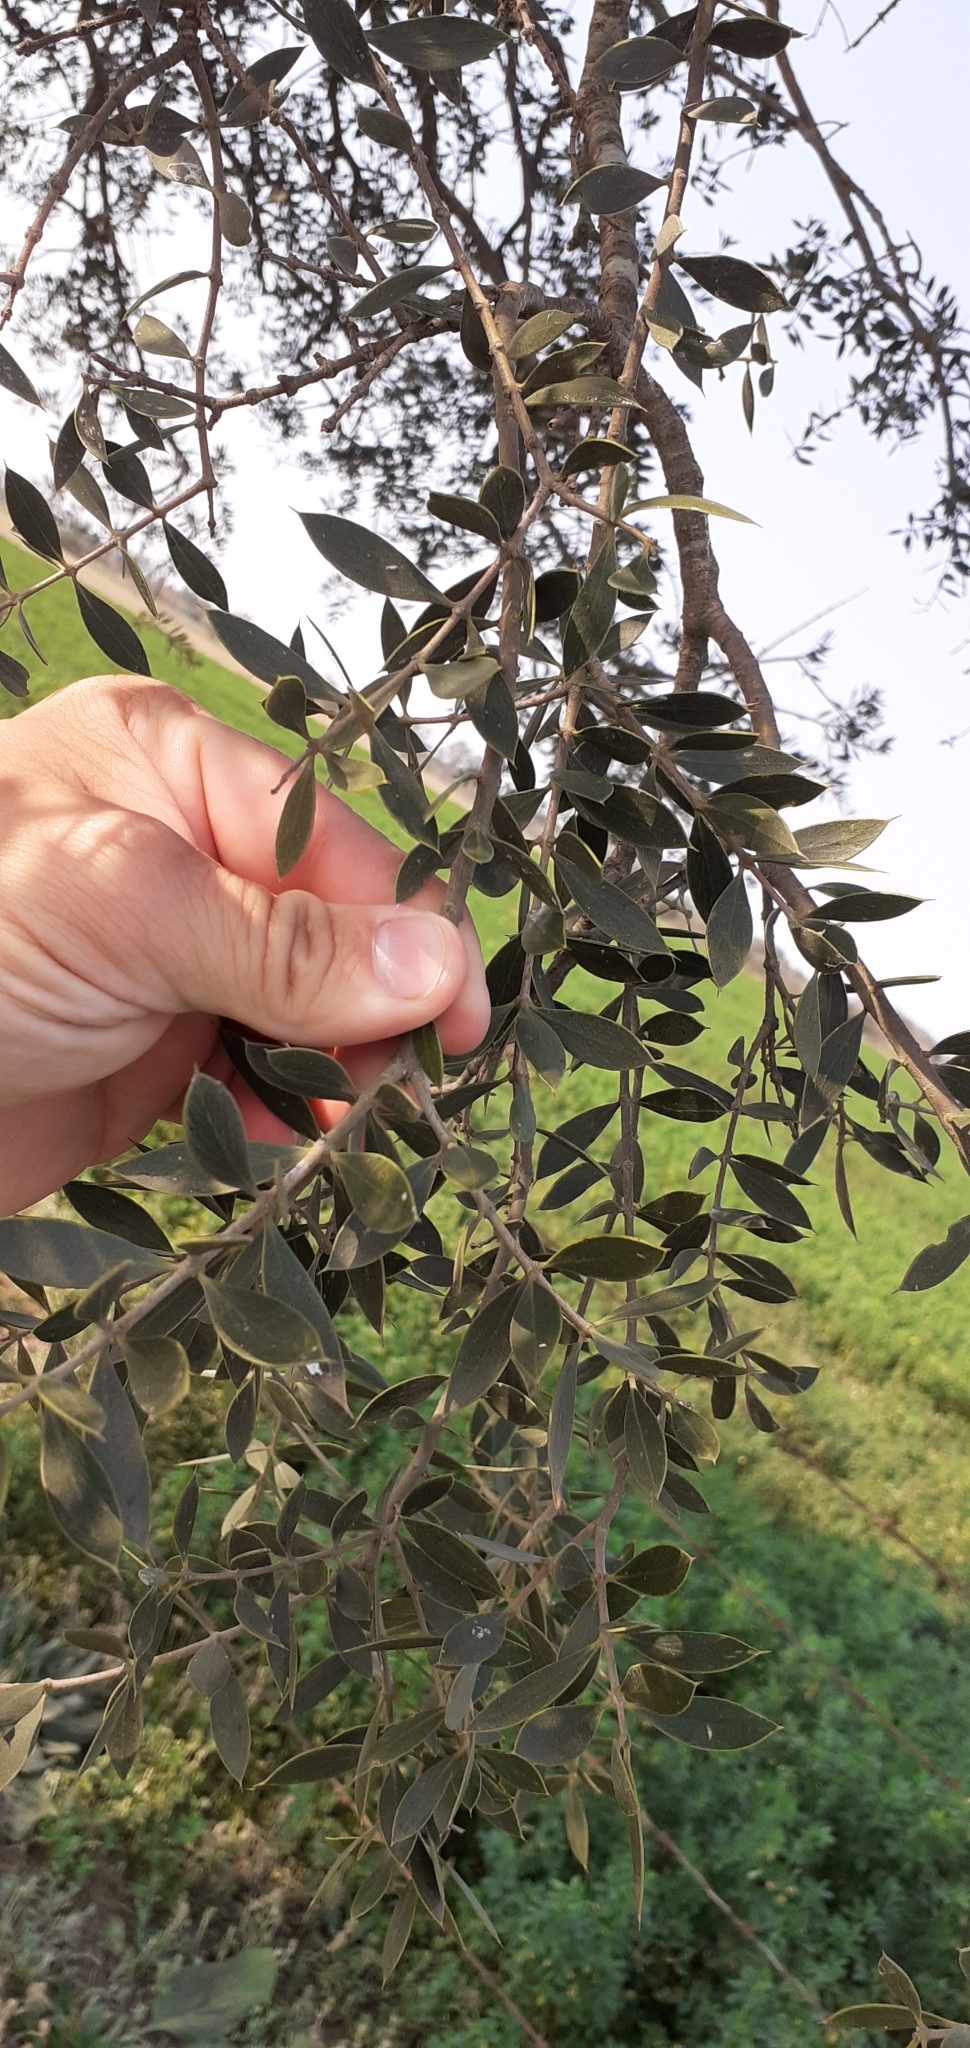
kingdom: Plantae
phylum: Tracheophyta
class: Magnoliopsida
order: Gentianales
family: Apocynaceae
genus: Aspidosperma
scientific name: Aspidosperma quebracho-blanco
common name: White quebracho
